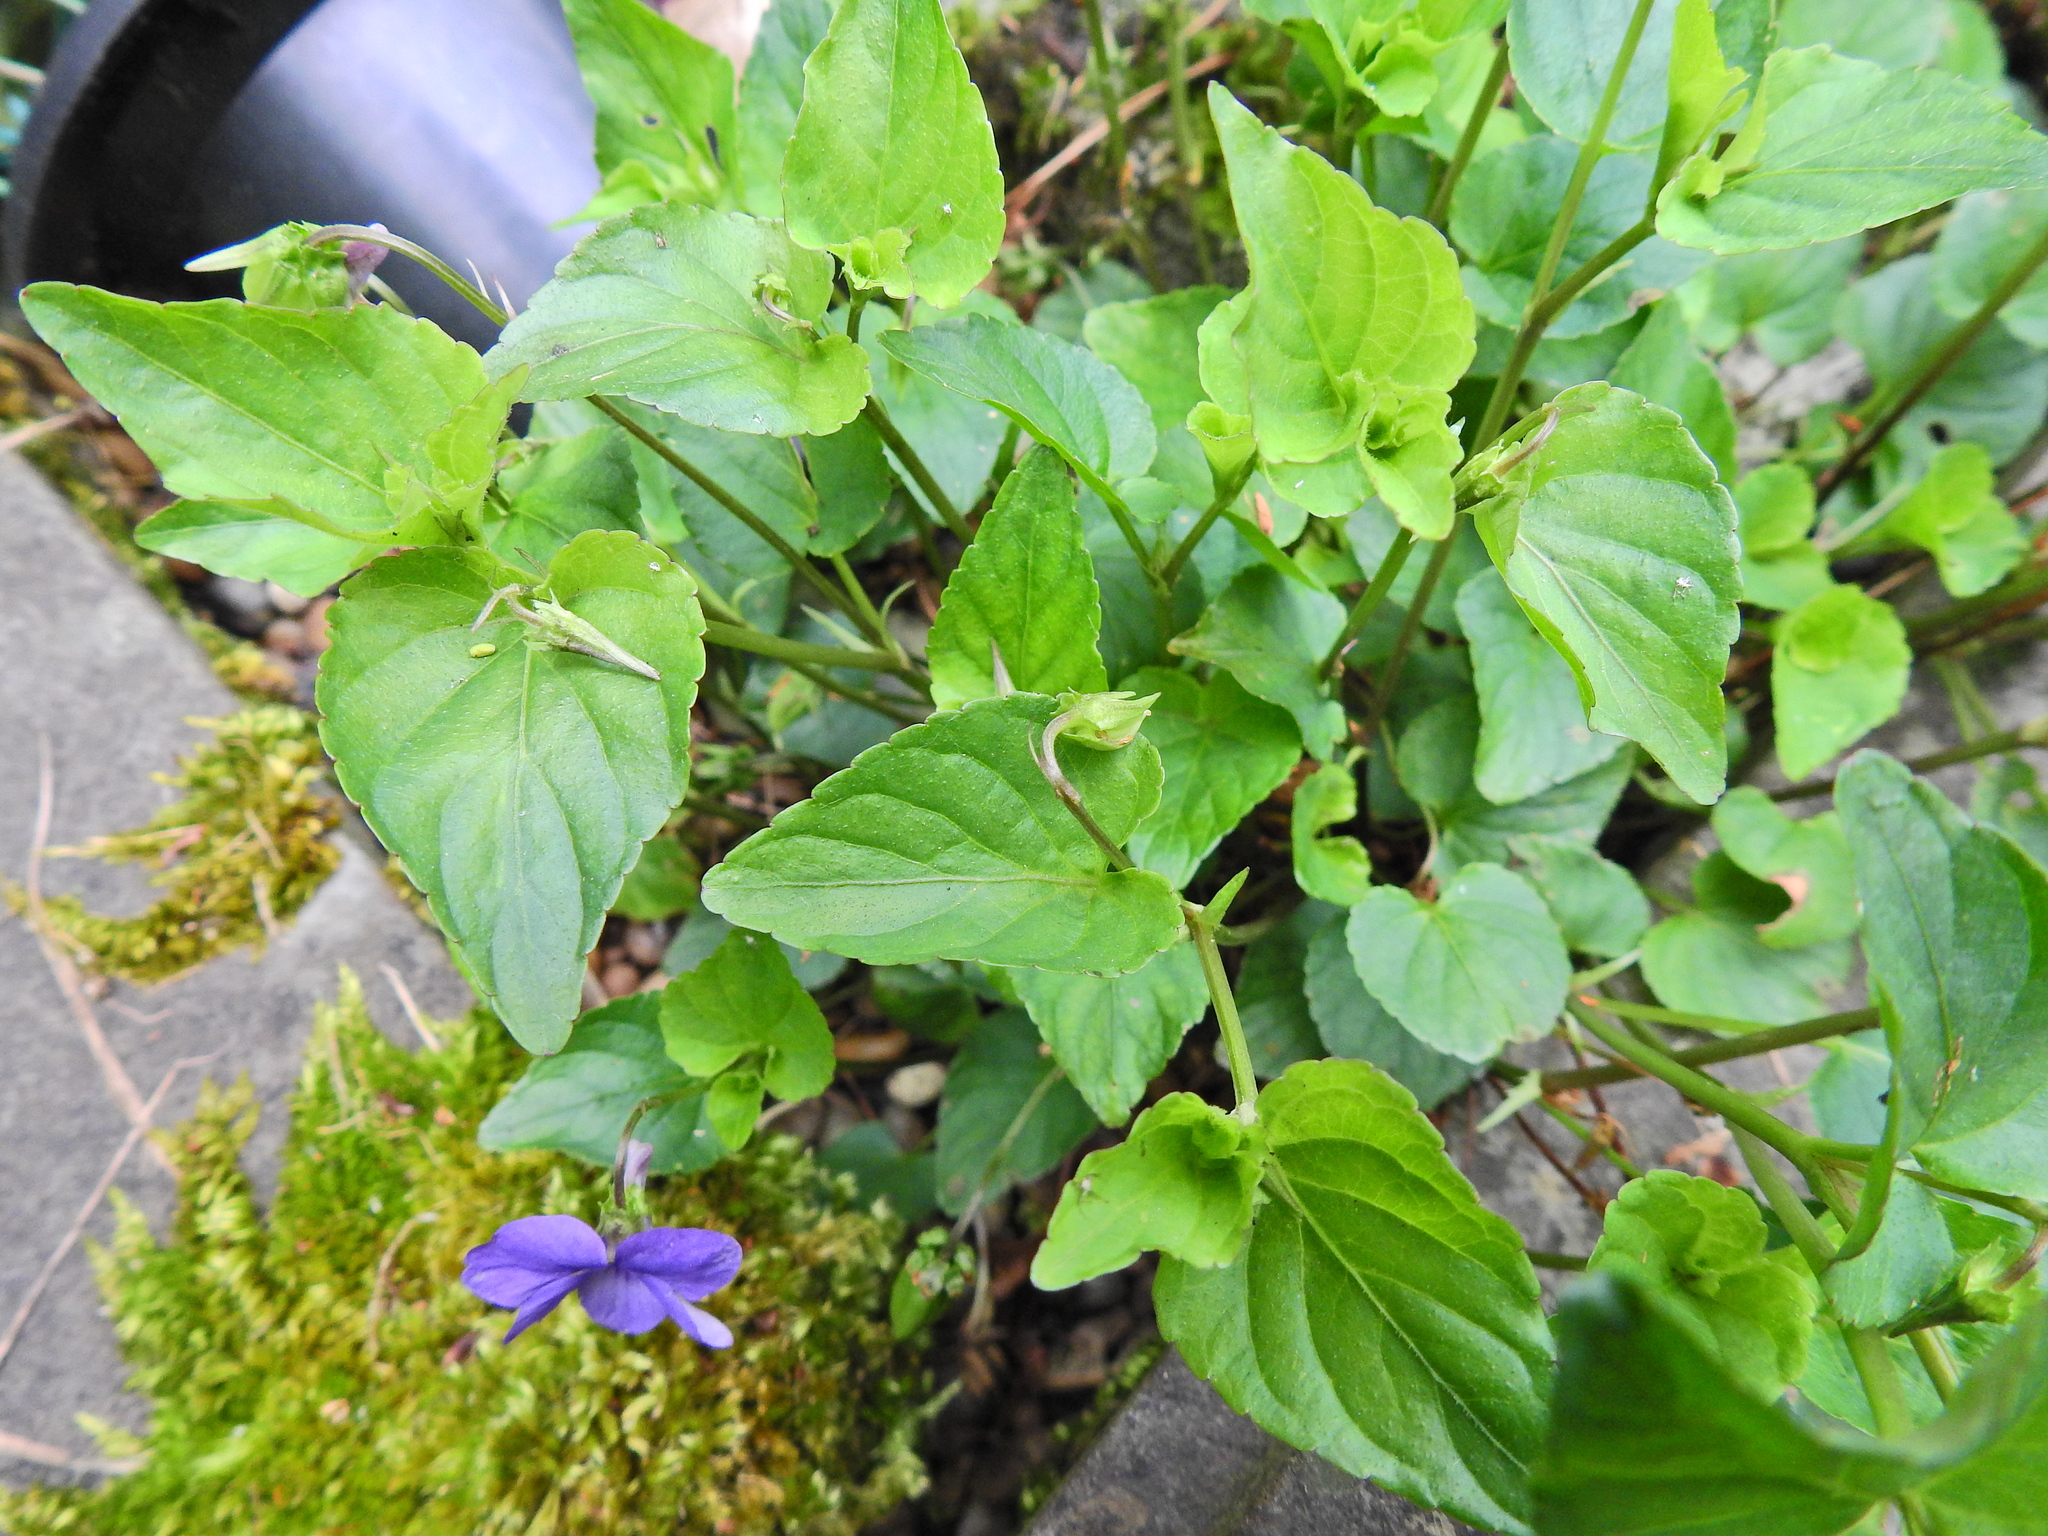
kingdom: Plantae
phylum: Tracheophyta
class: Magnoliopsida
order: Malpighiales
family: Violaceae
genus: Viola
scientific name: Viola riviniana
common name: Common dog-violet
